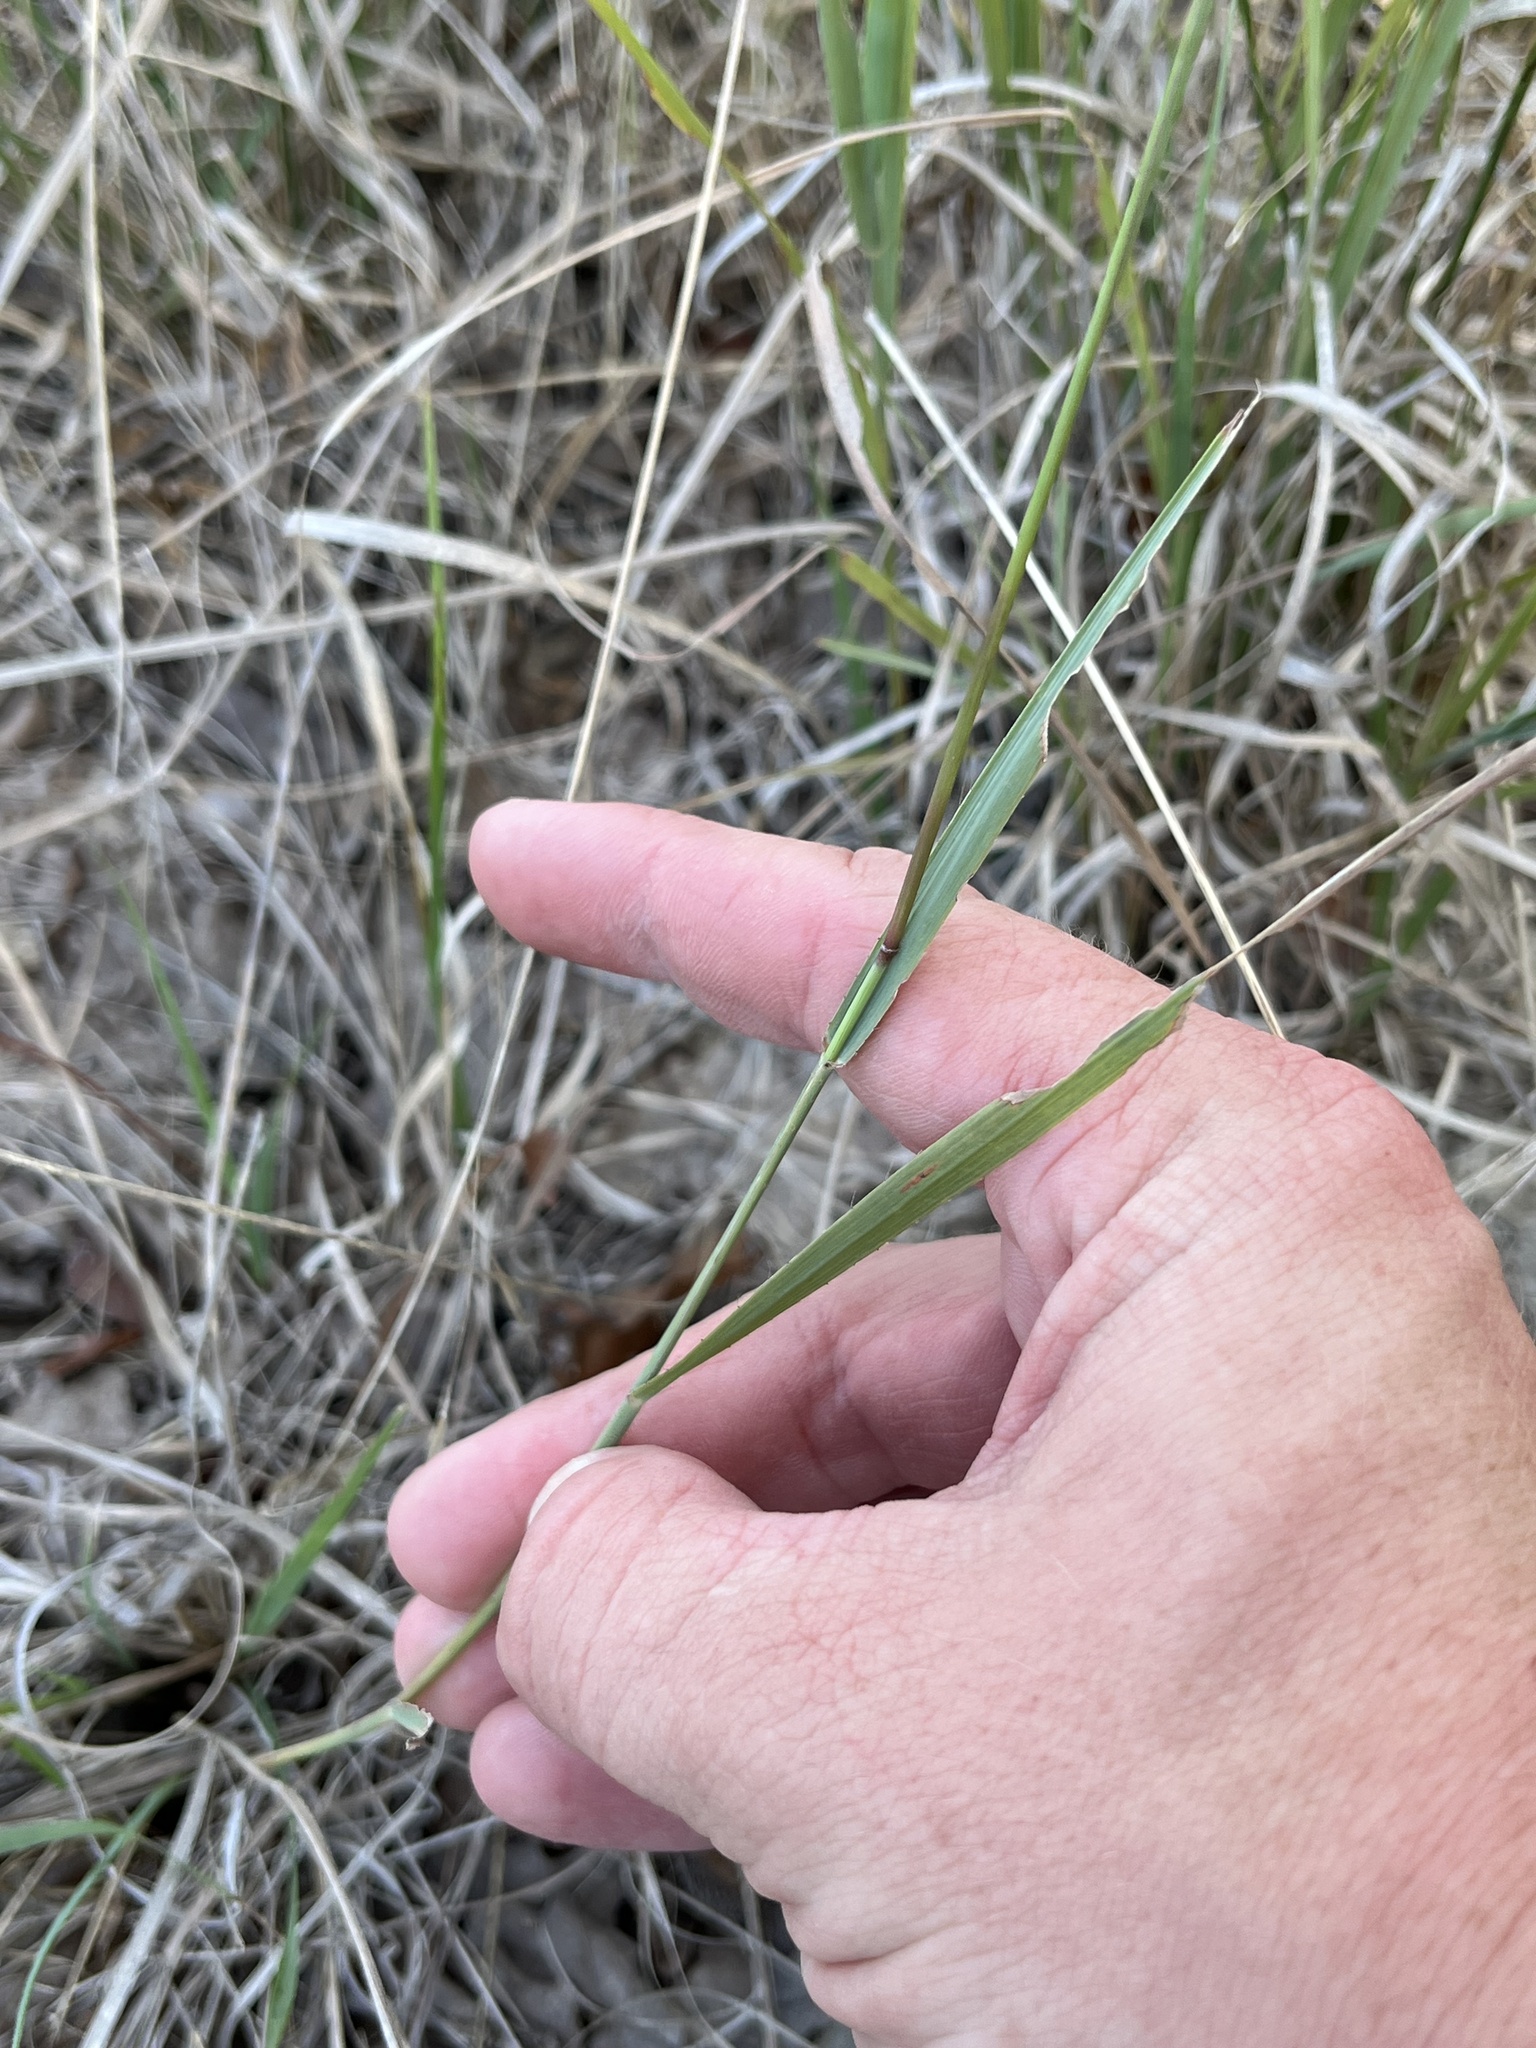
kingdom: Plantae
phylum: Tracheophyta
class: Liliopsida
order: Poales
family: Poaceae
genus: Bouteloua
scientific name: Bouteloua curtipendula
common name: Side-oats grama
